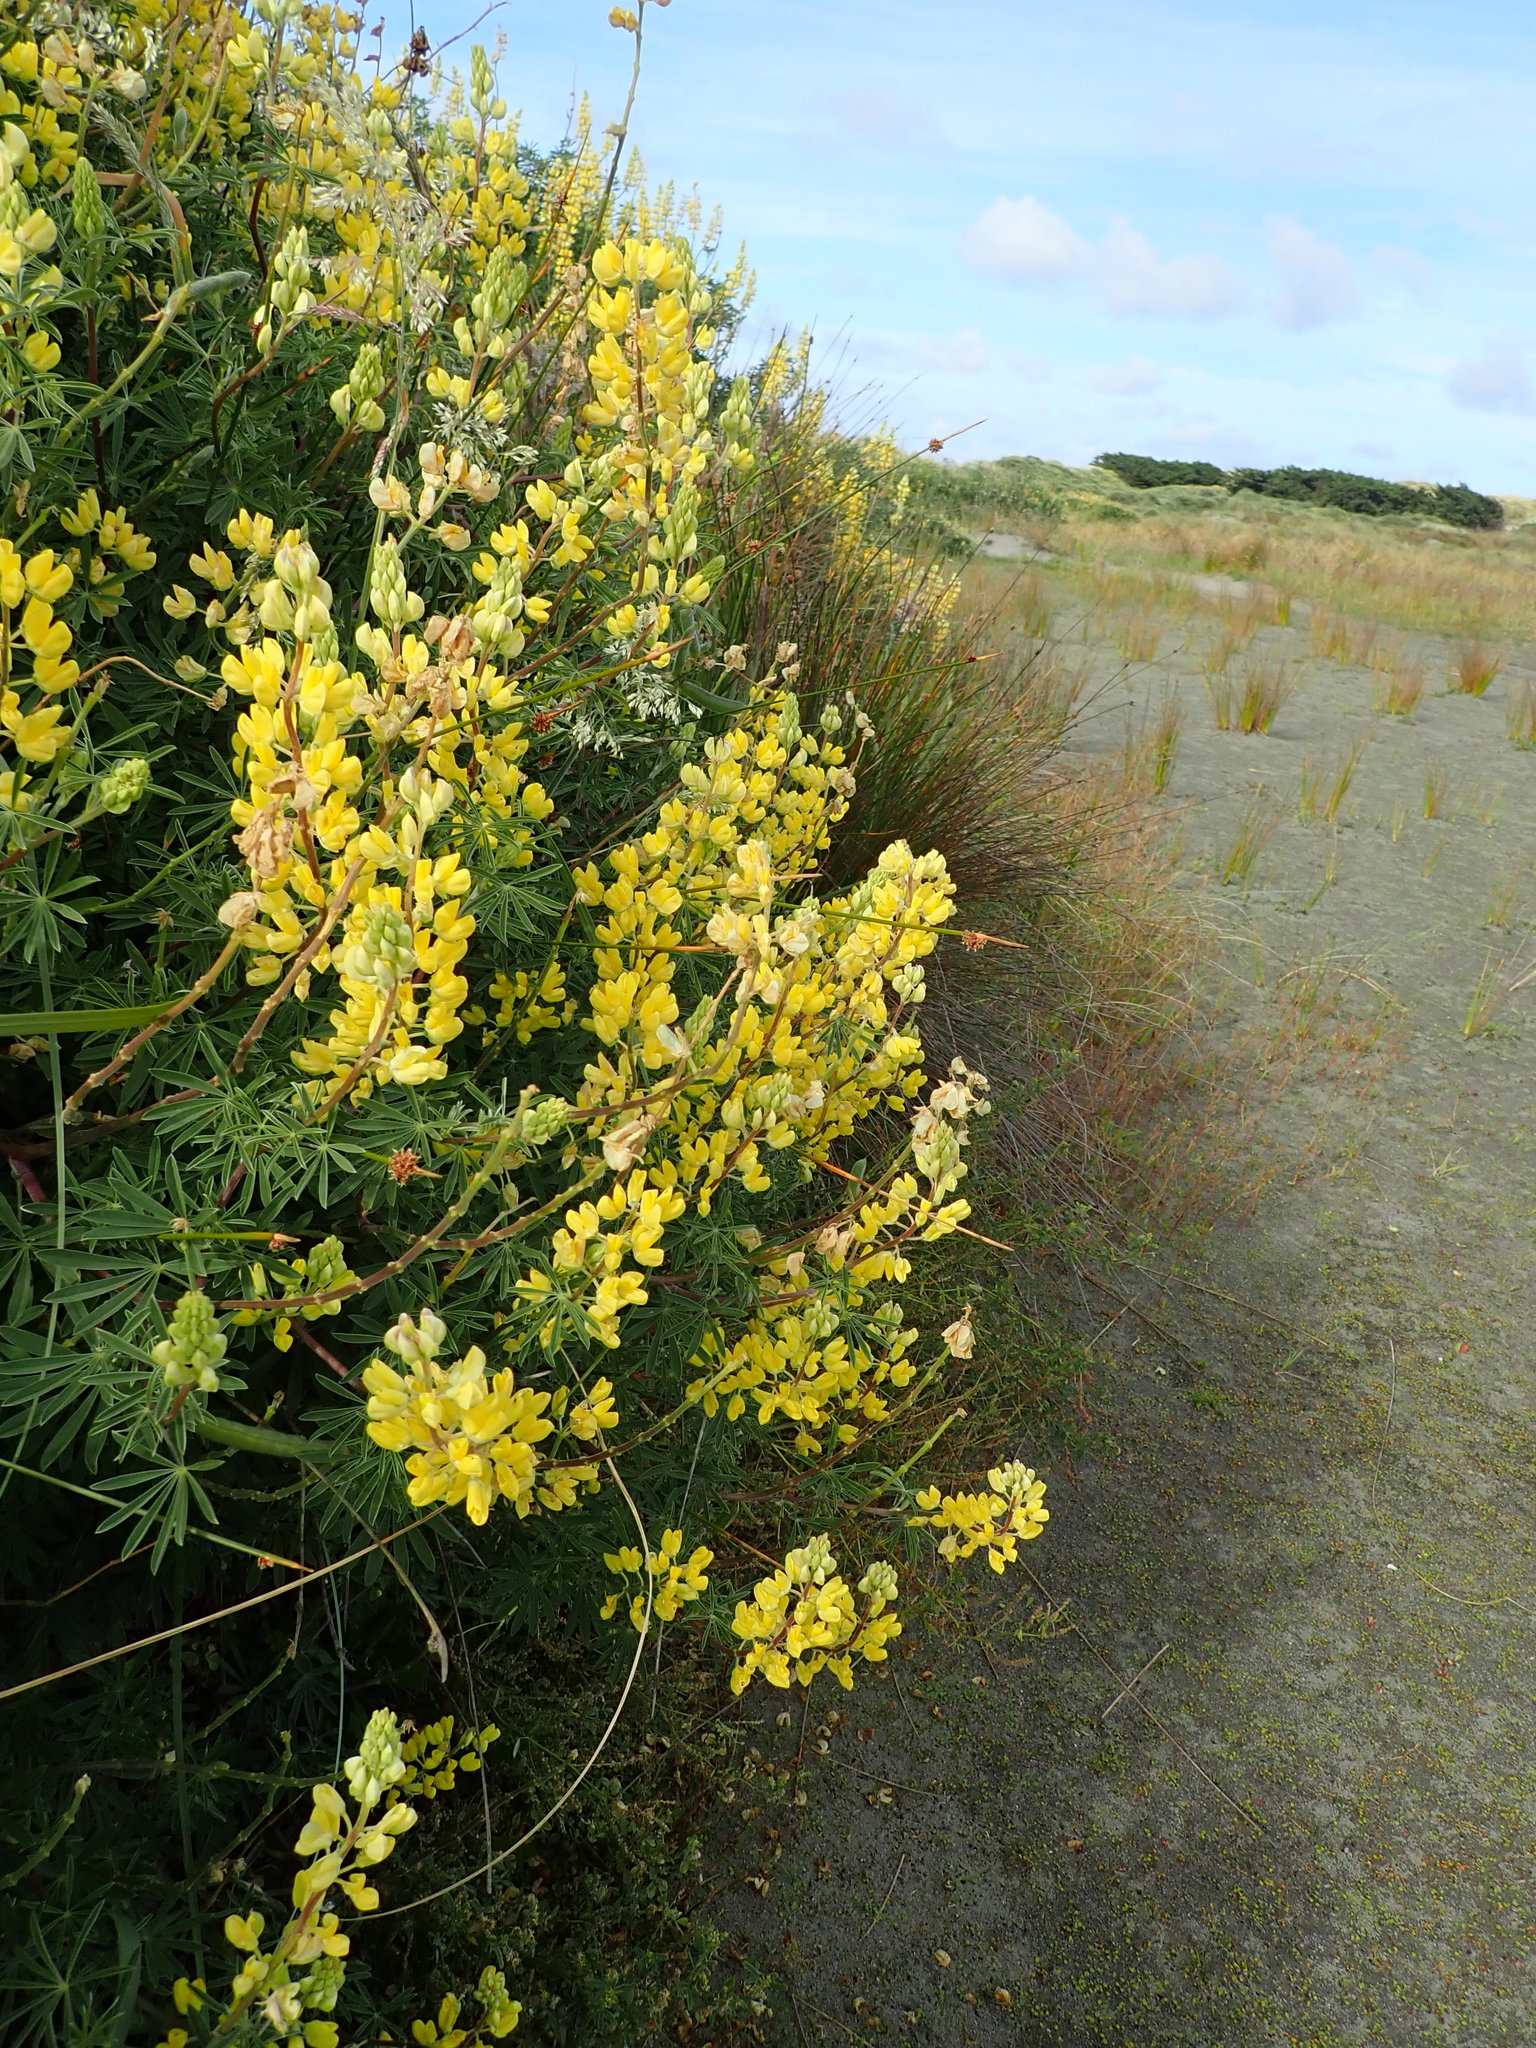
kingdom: Plantae
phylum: Tracheophyta
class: Magnoliopsida
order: Fabales
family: Fabaceae
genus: Lupinus
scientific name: Lupinus arboreus
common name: Yellow bush lupine
